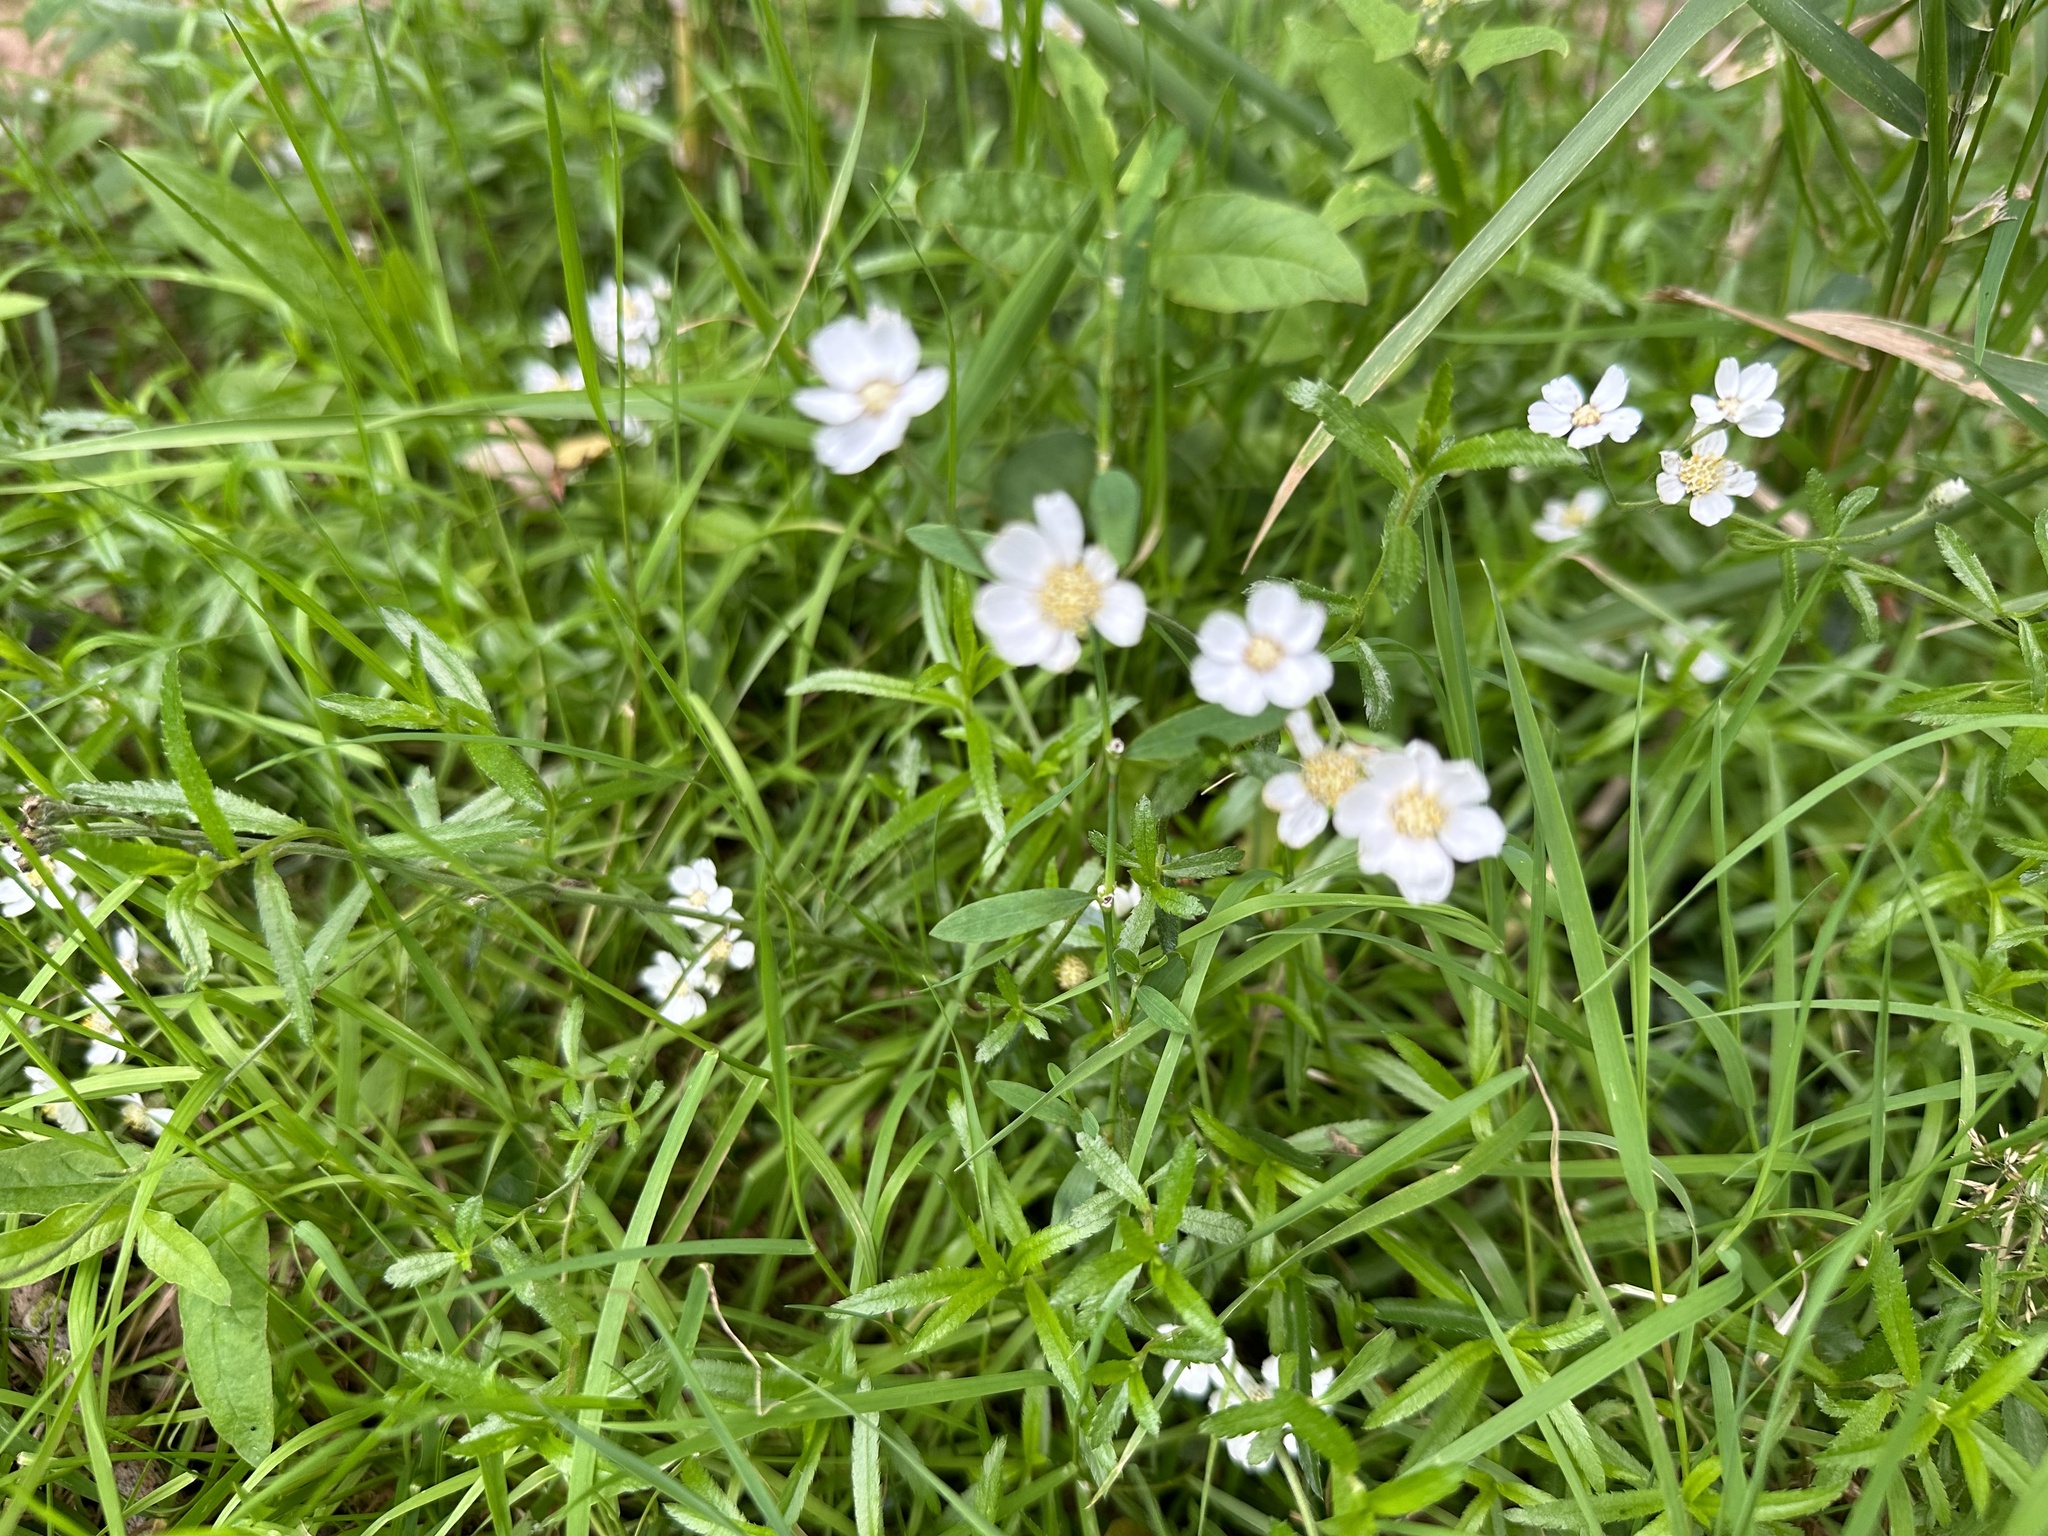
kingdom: Plantae
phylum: Tracheophyta
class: Magnoliopsida
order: Asterales
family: Asteraceae
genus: Achillea
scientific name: Achillea ptarmica
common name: Sneezeweed
